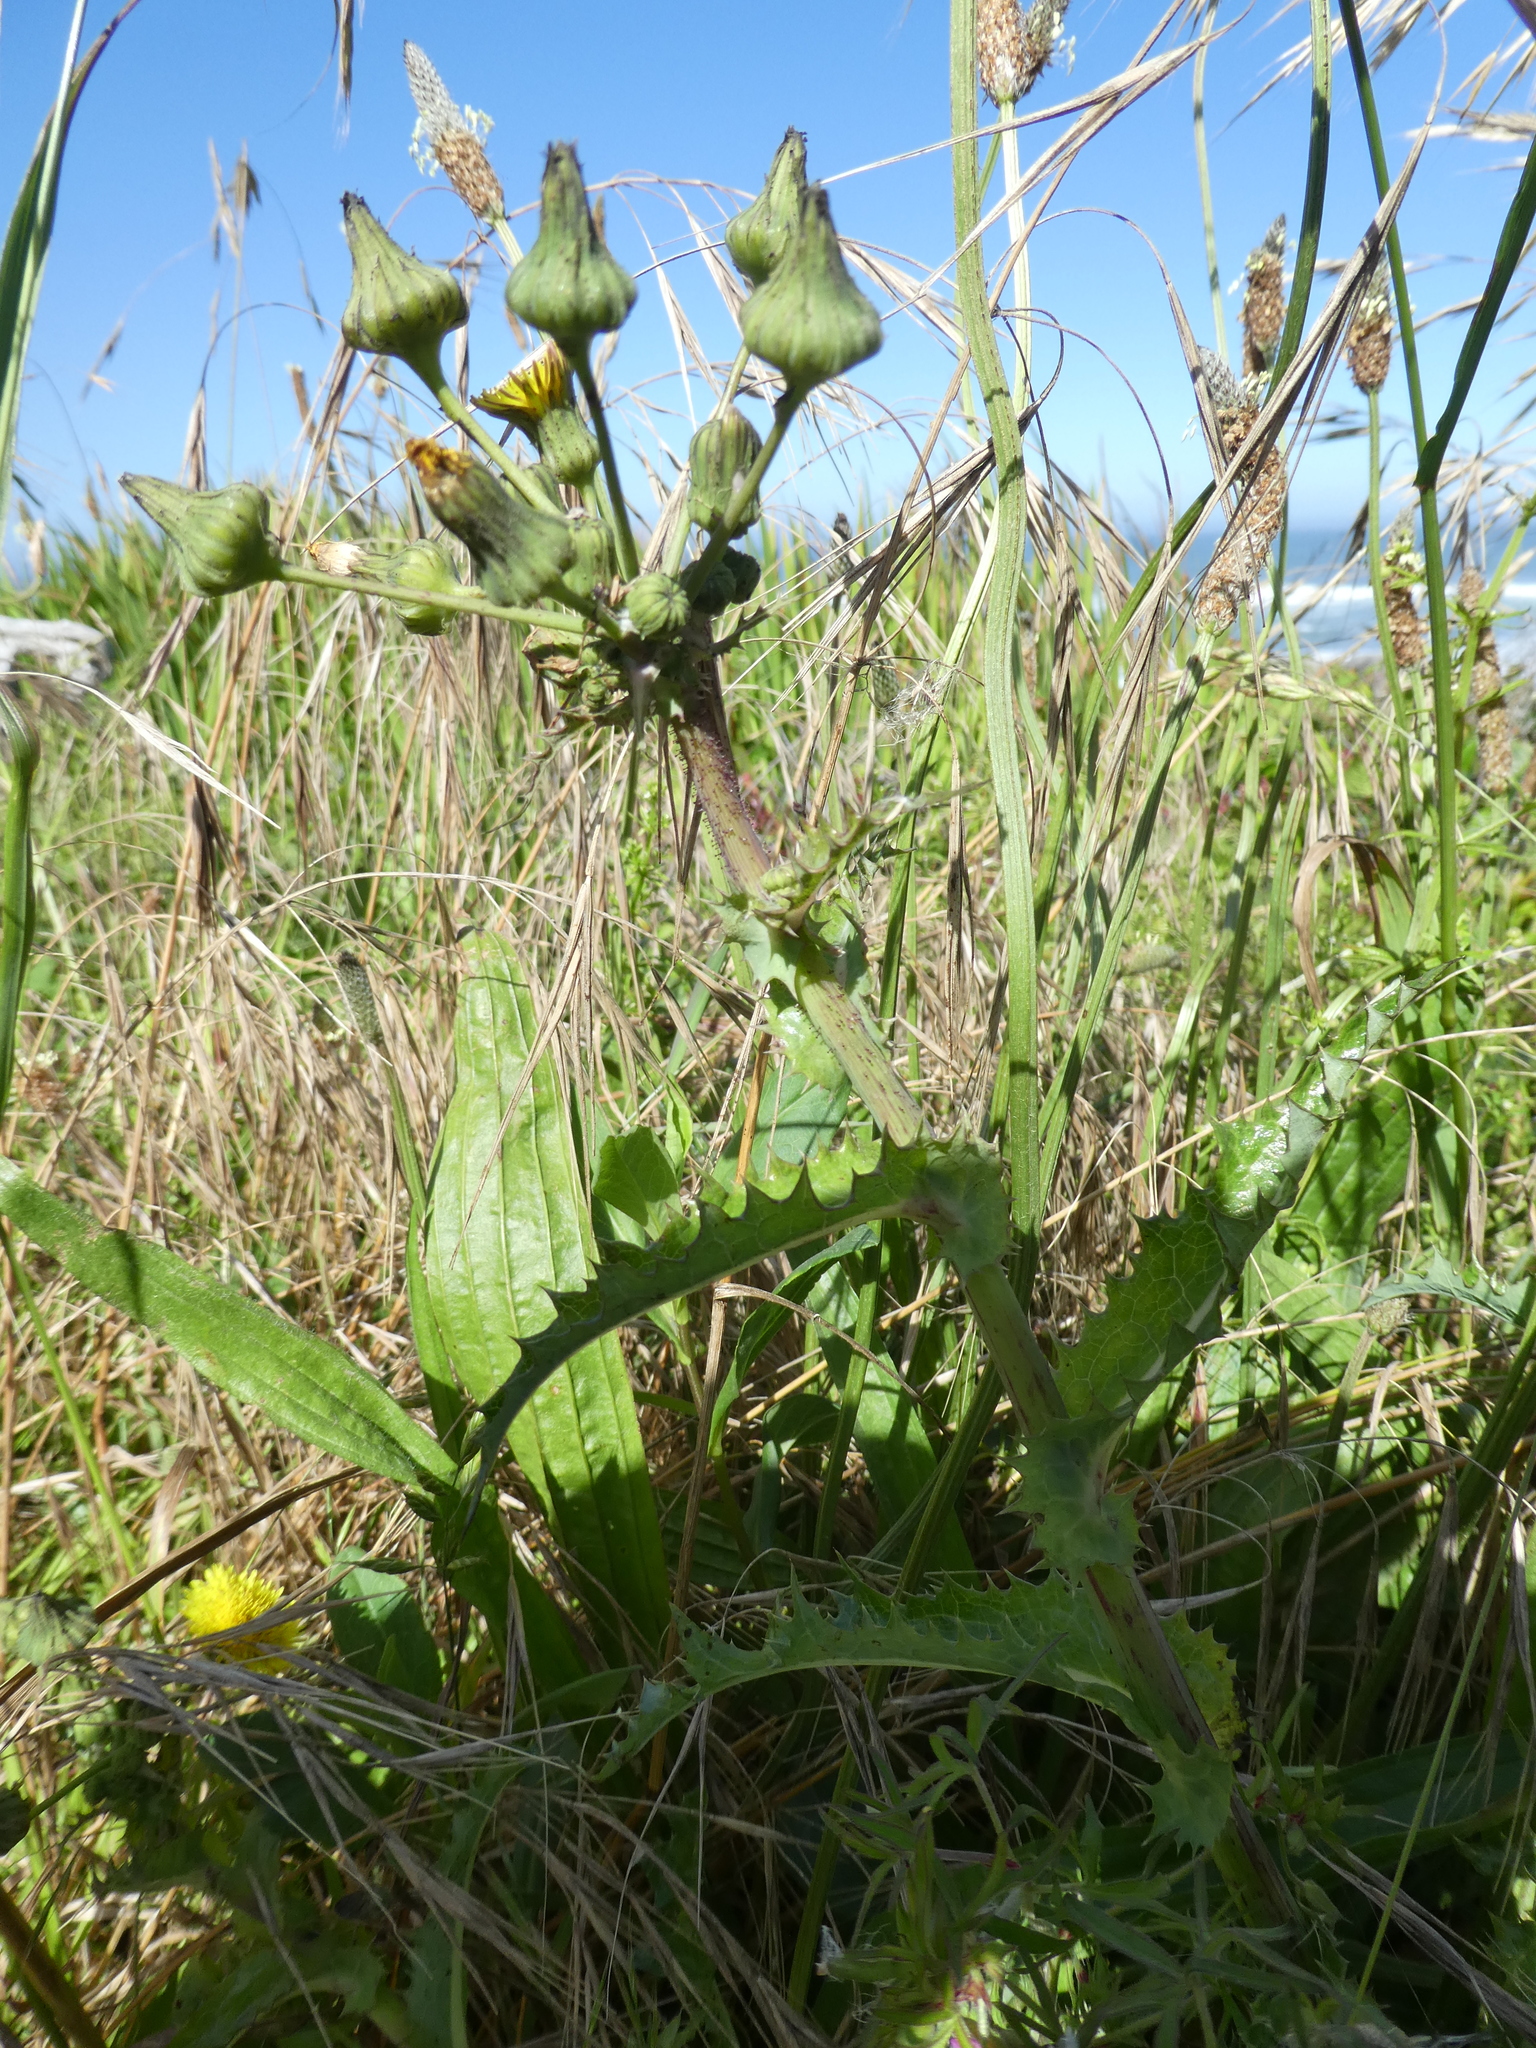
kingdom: Plantae
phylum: Tracheophyta
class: Magnoliopsida
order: Asterales
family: Asteraceae
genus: Sonchus
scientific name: Sonchus asper
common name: Prickly sow-thistle
